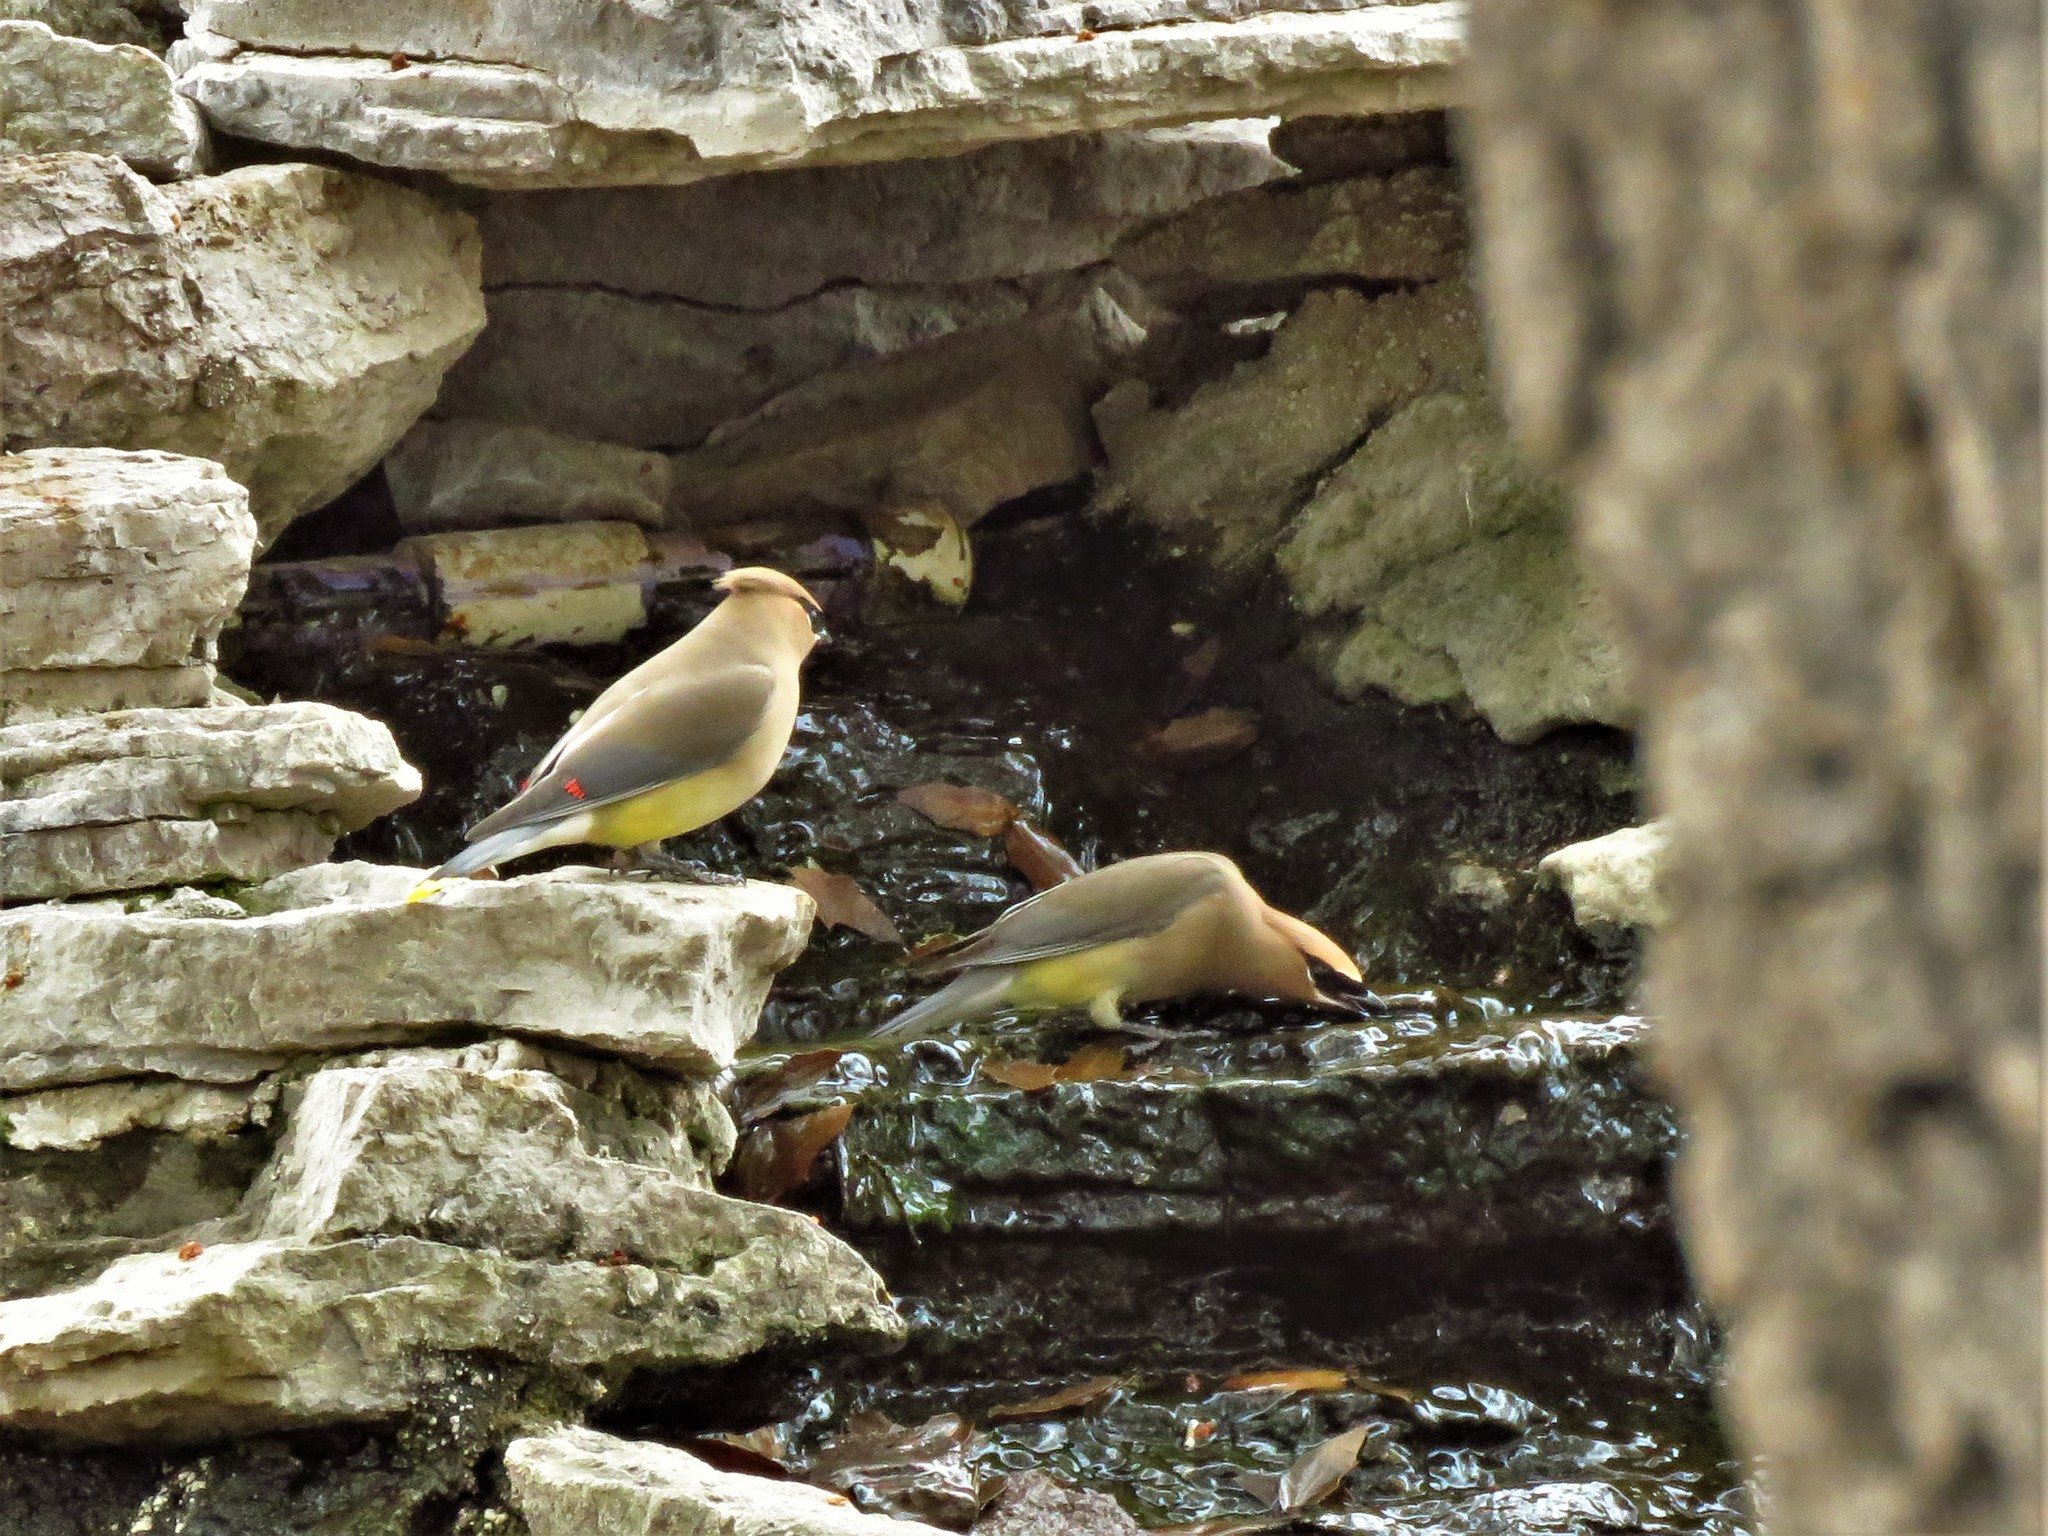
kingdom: Animalia
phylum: Chordata
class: Aves
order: Passeriformes
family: Bombycillidae
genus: Bombycilla
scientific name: Bombycilla cedrorum
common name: Cedar waxwing
